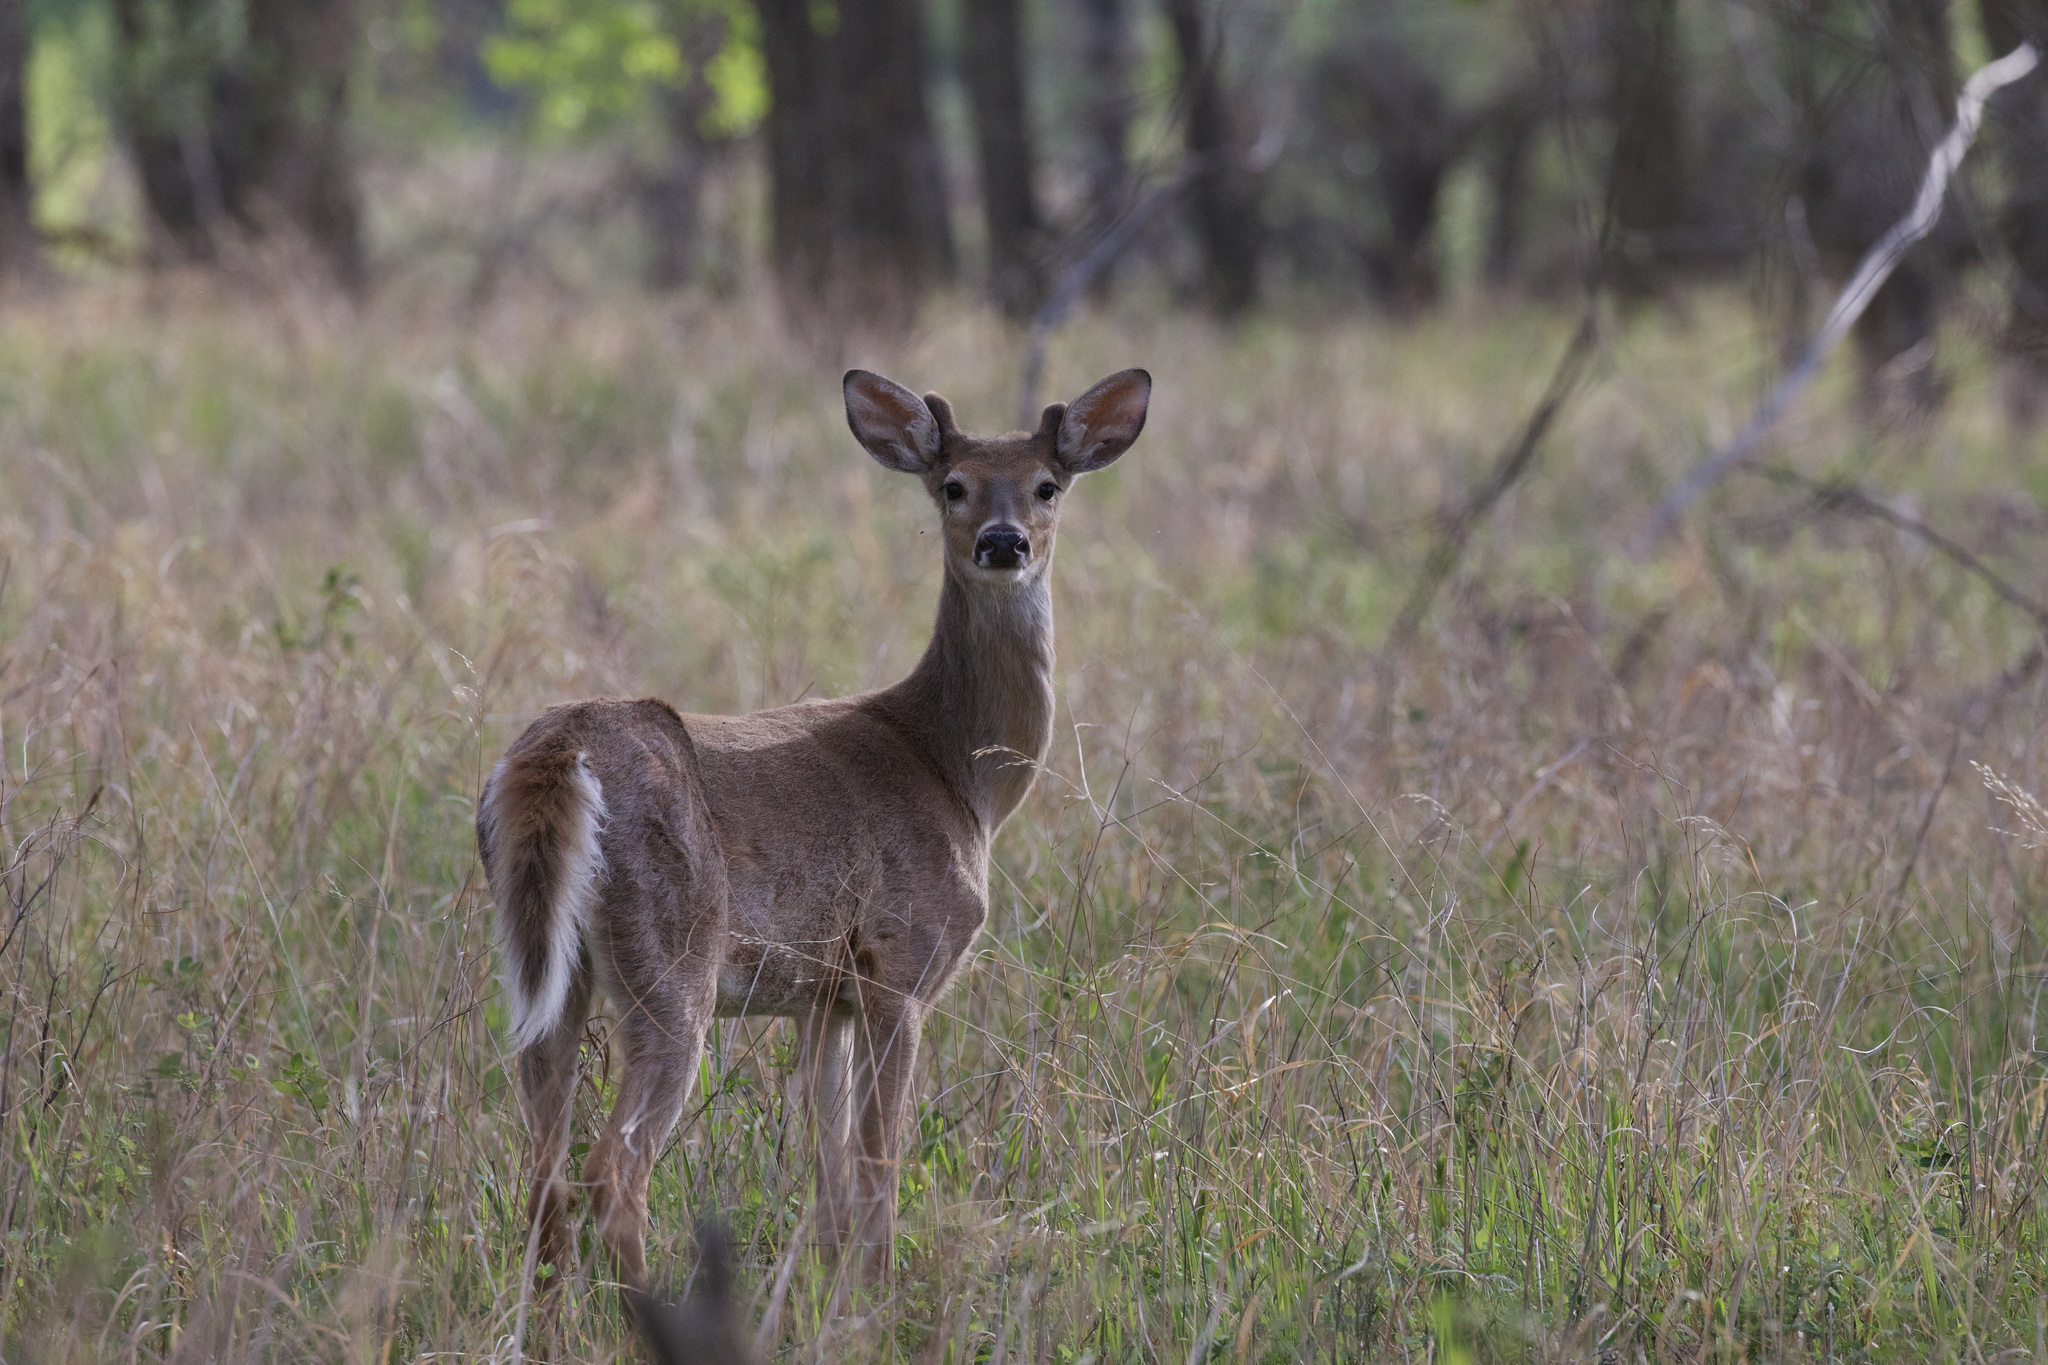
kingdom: Animalia
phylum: Chordata
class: Mammalia
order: Artiodactyla
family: Cervidae
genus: Odocoileus
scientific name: Odocoileus virginianus
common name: White-tailed deer
